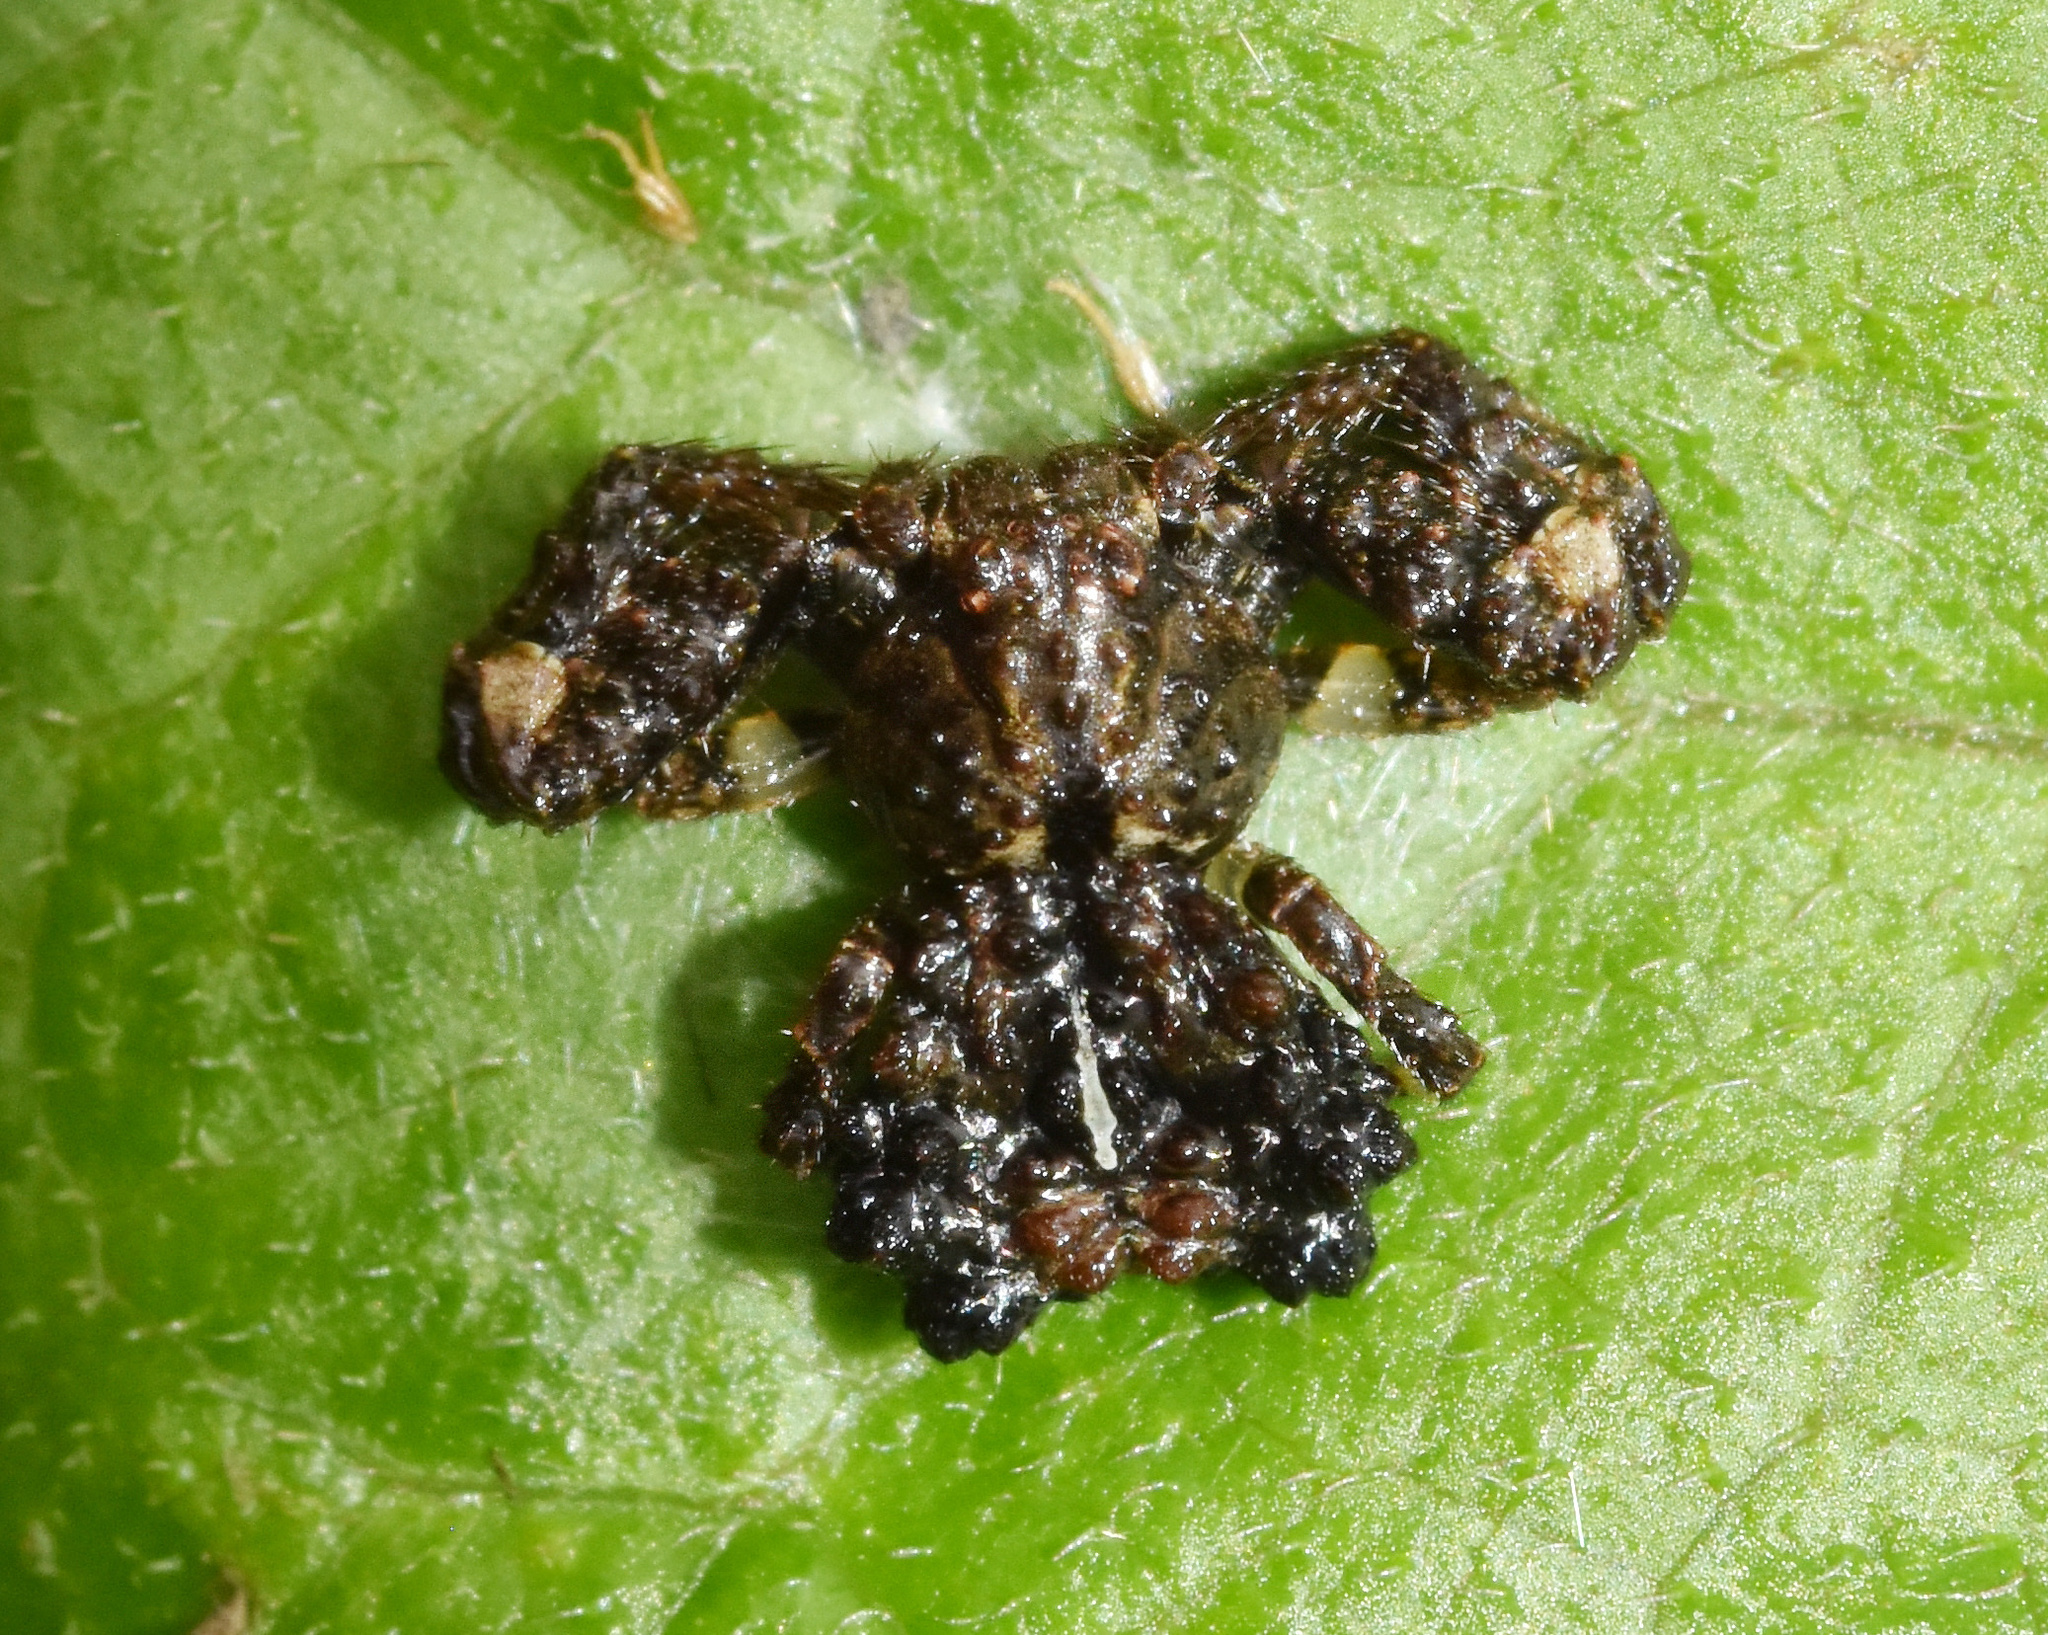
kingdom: Animalia
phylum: Arthropoda
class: Arachnida
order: Araneae
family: Thomisidae
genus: Phrynarachne
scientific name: Phrynarachne rugosa
